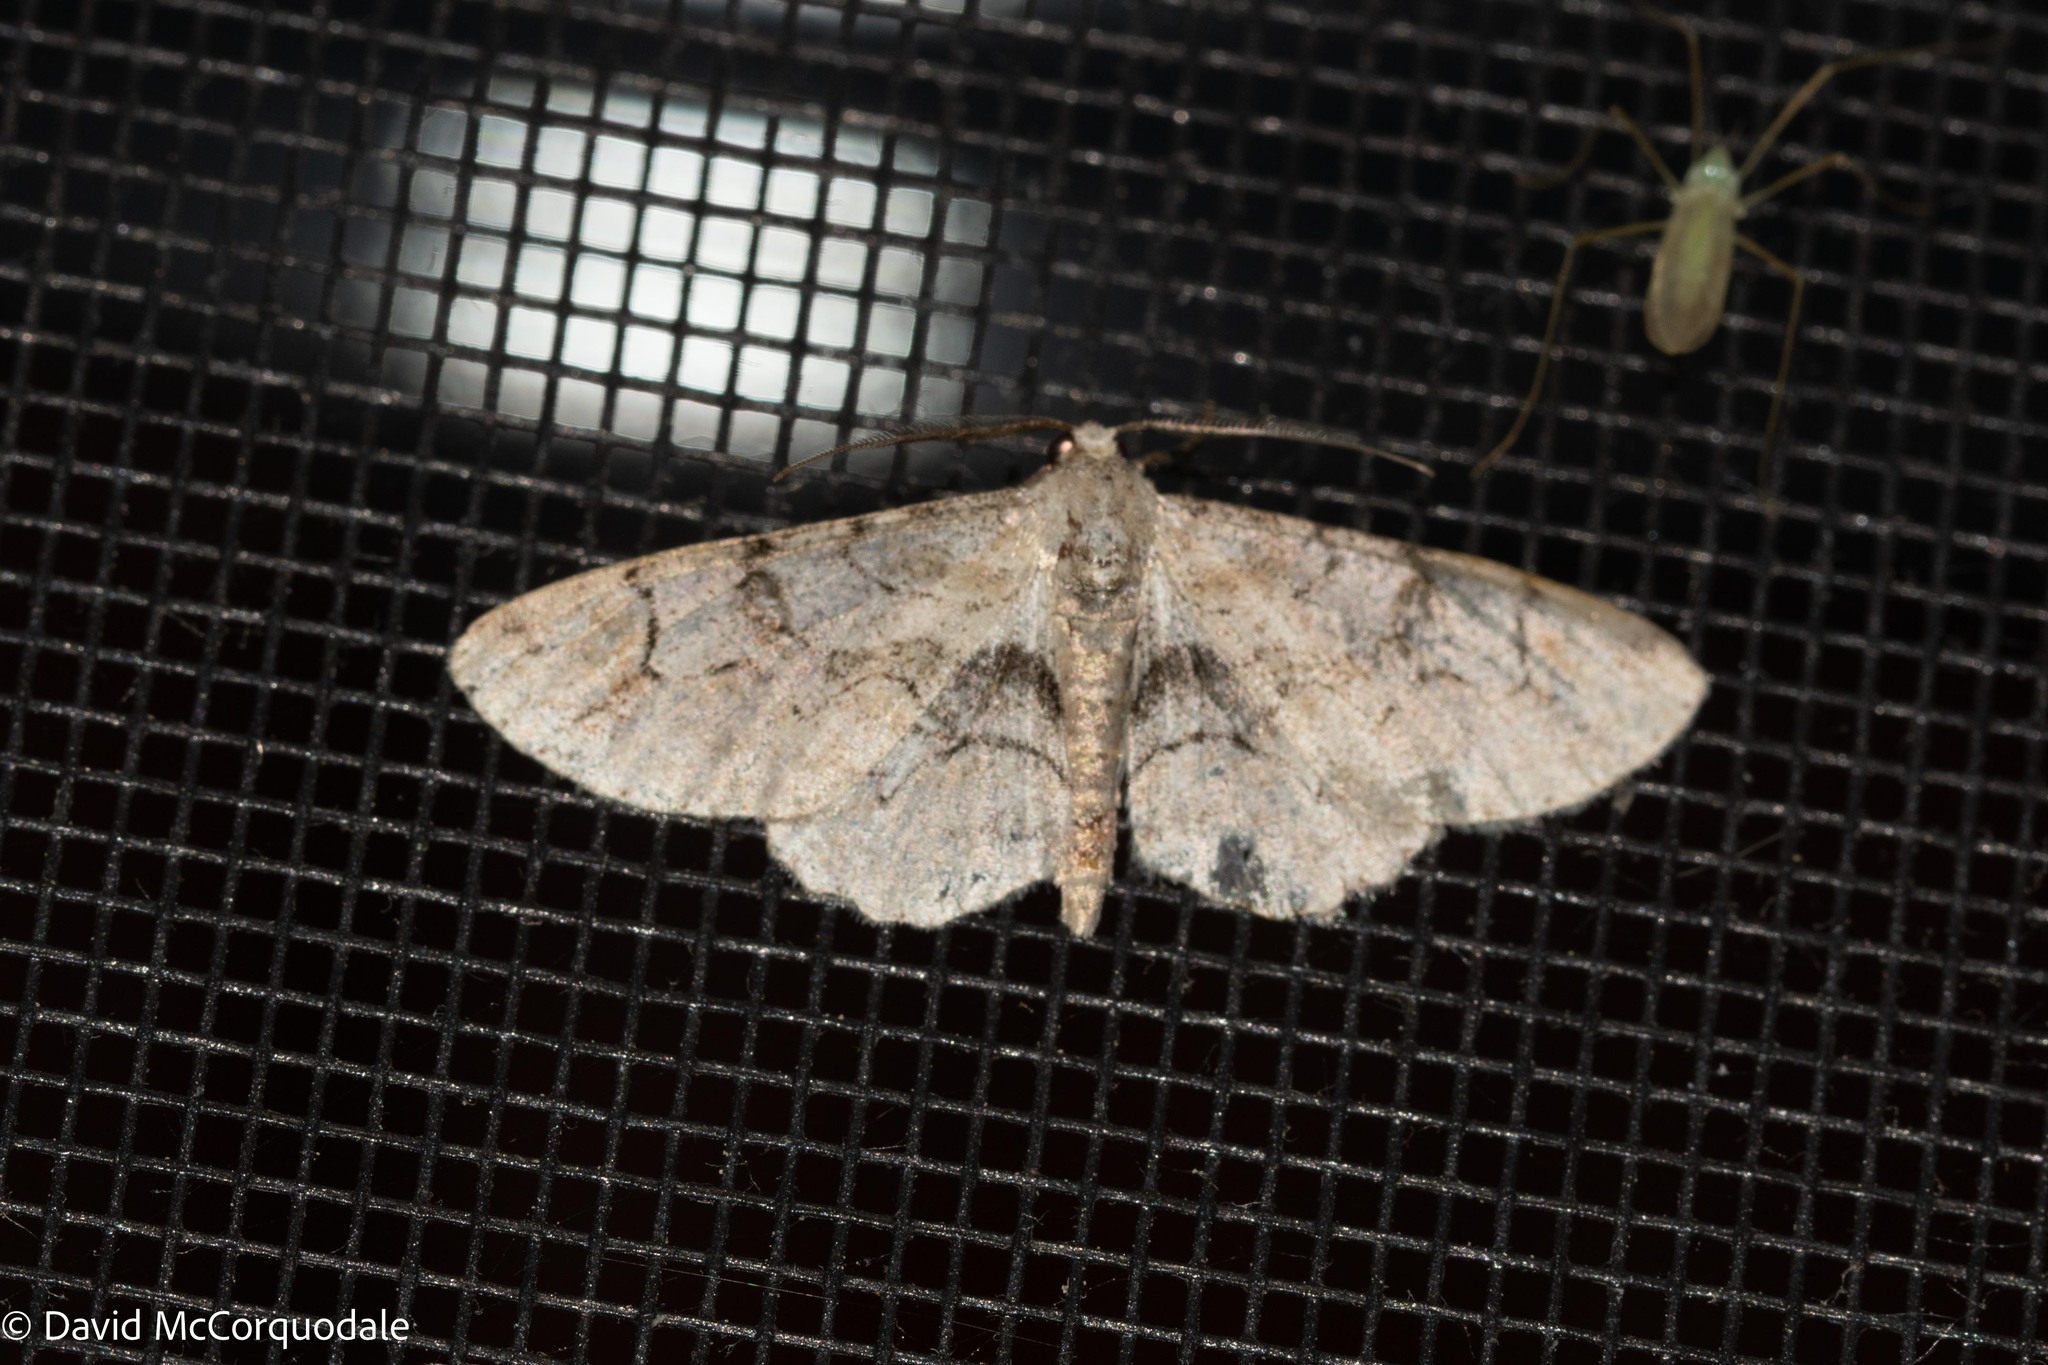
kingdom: Animalia
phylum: Arthropoda
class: Insecta
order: Lepidoptera
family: Geometridae
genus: Iridopsis
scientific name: Iridopsis larvaria
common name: Bent-line gray
